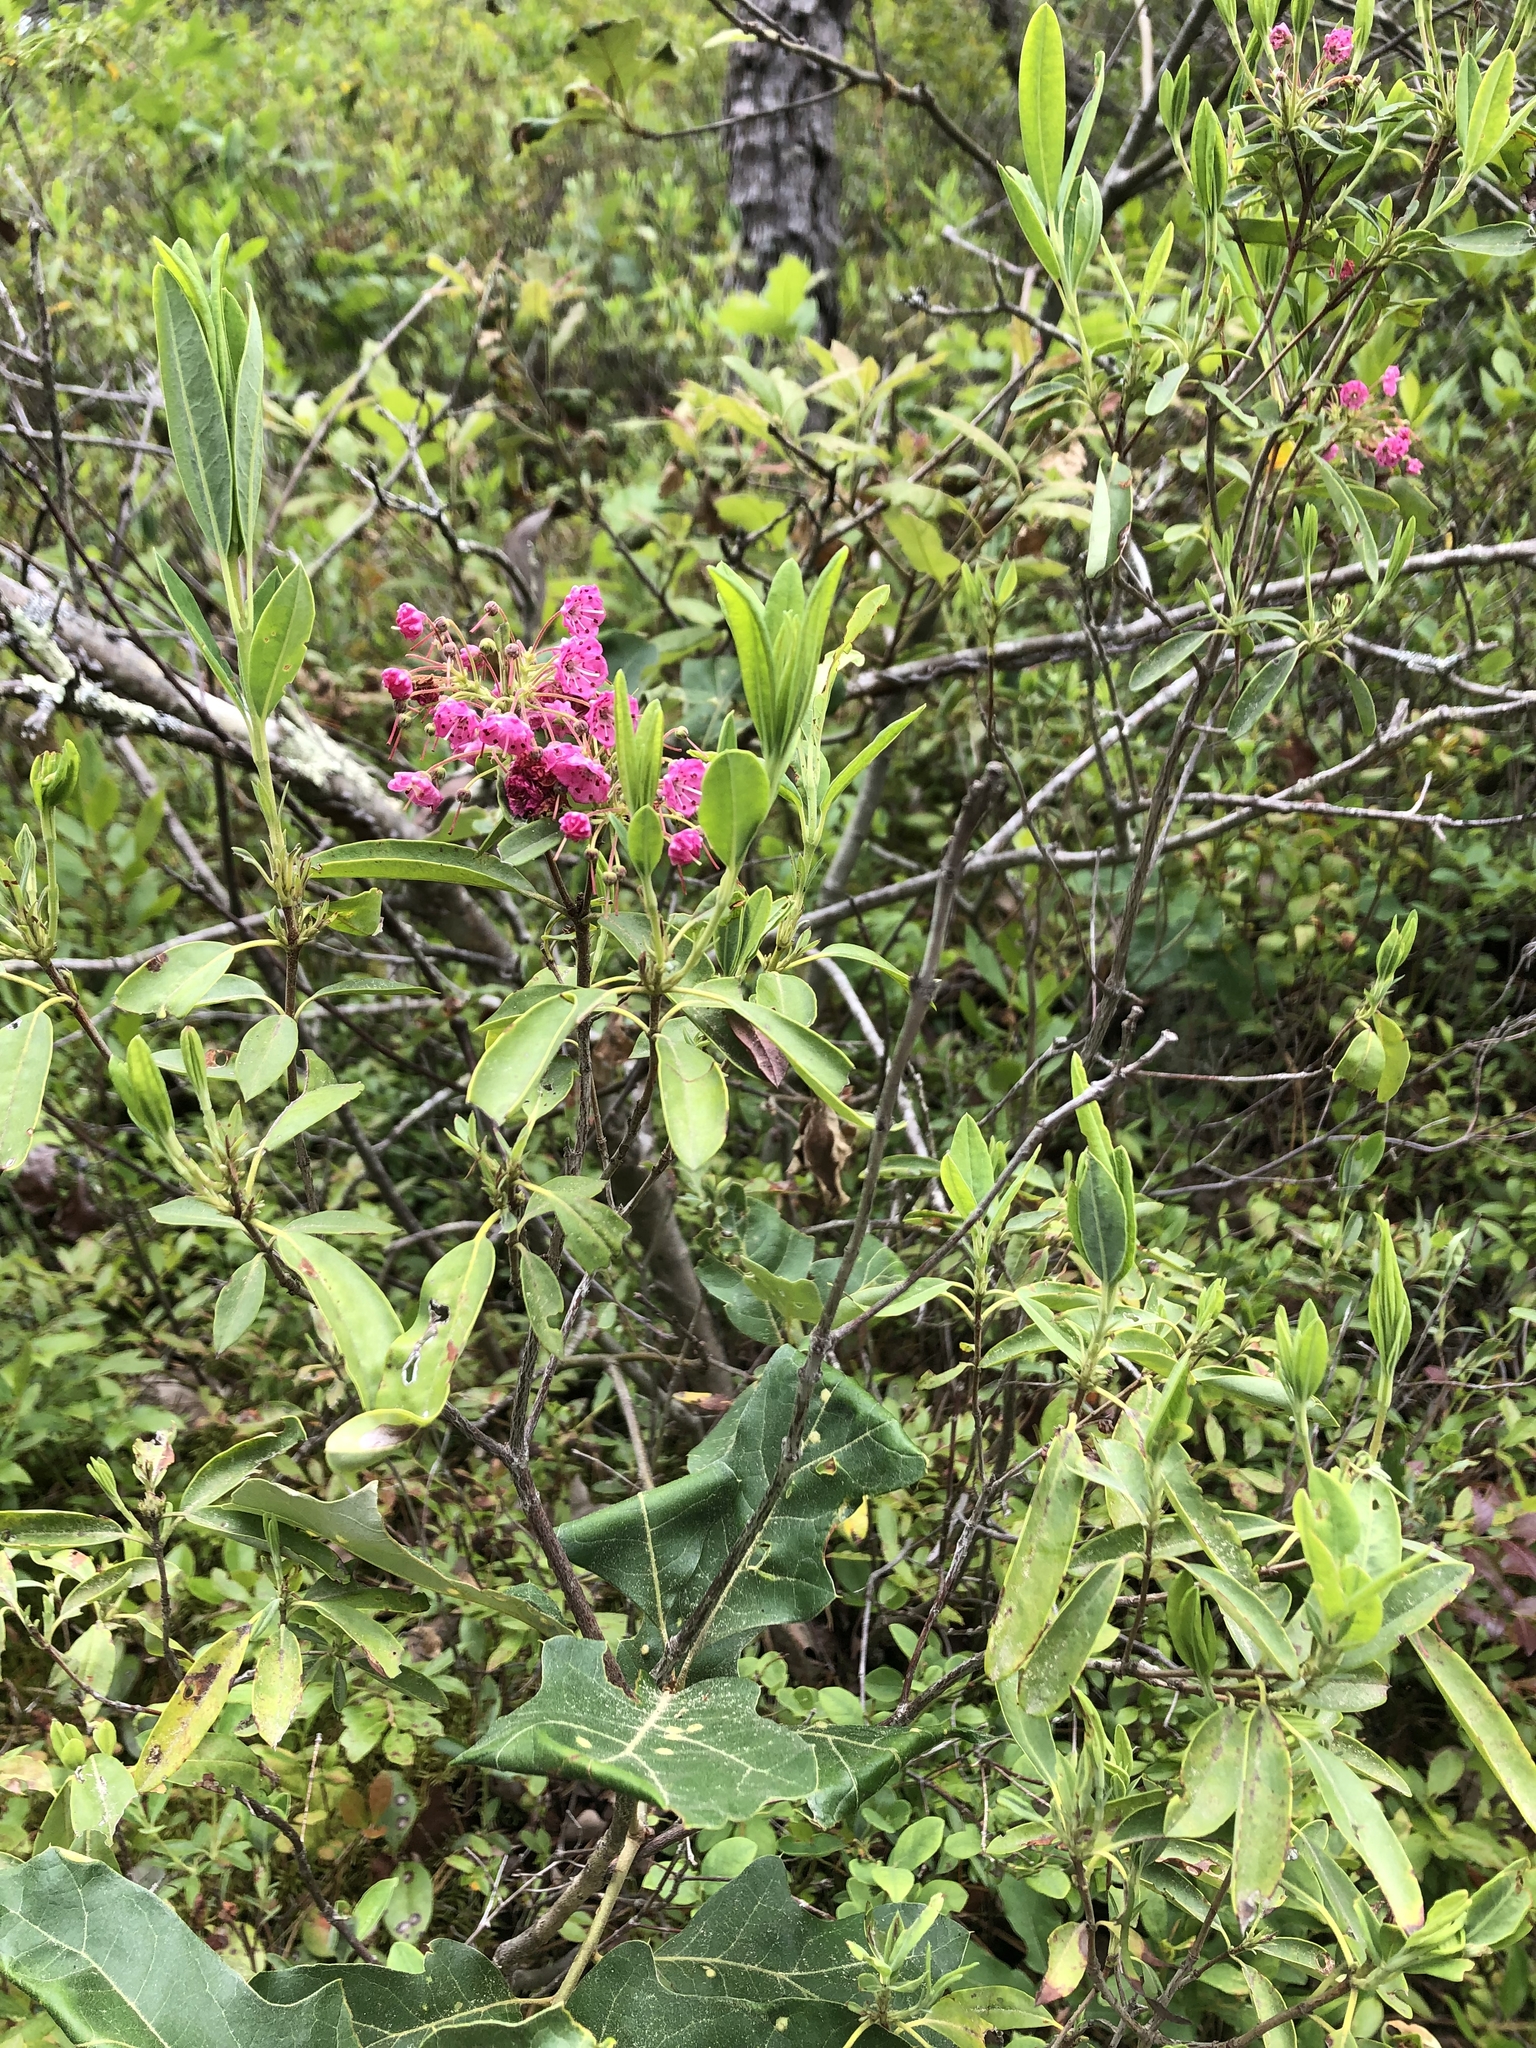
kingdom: Plantae
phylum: Tracheophyta
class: Magnoliopsida
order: Ericales
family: Ericaceae
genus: Kalmia
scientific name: Kalmia angustifolia
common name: Sheep-laurel
